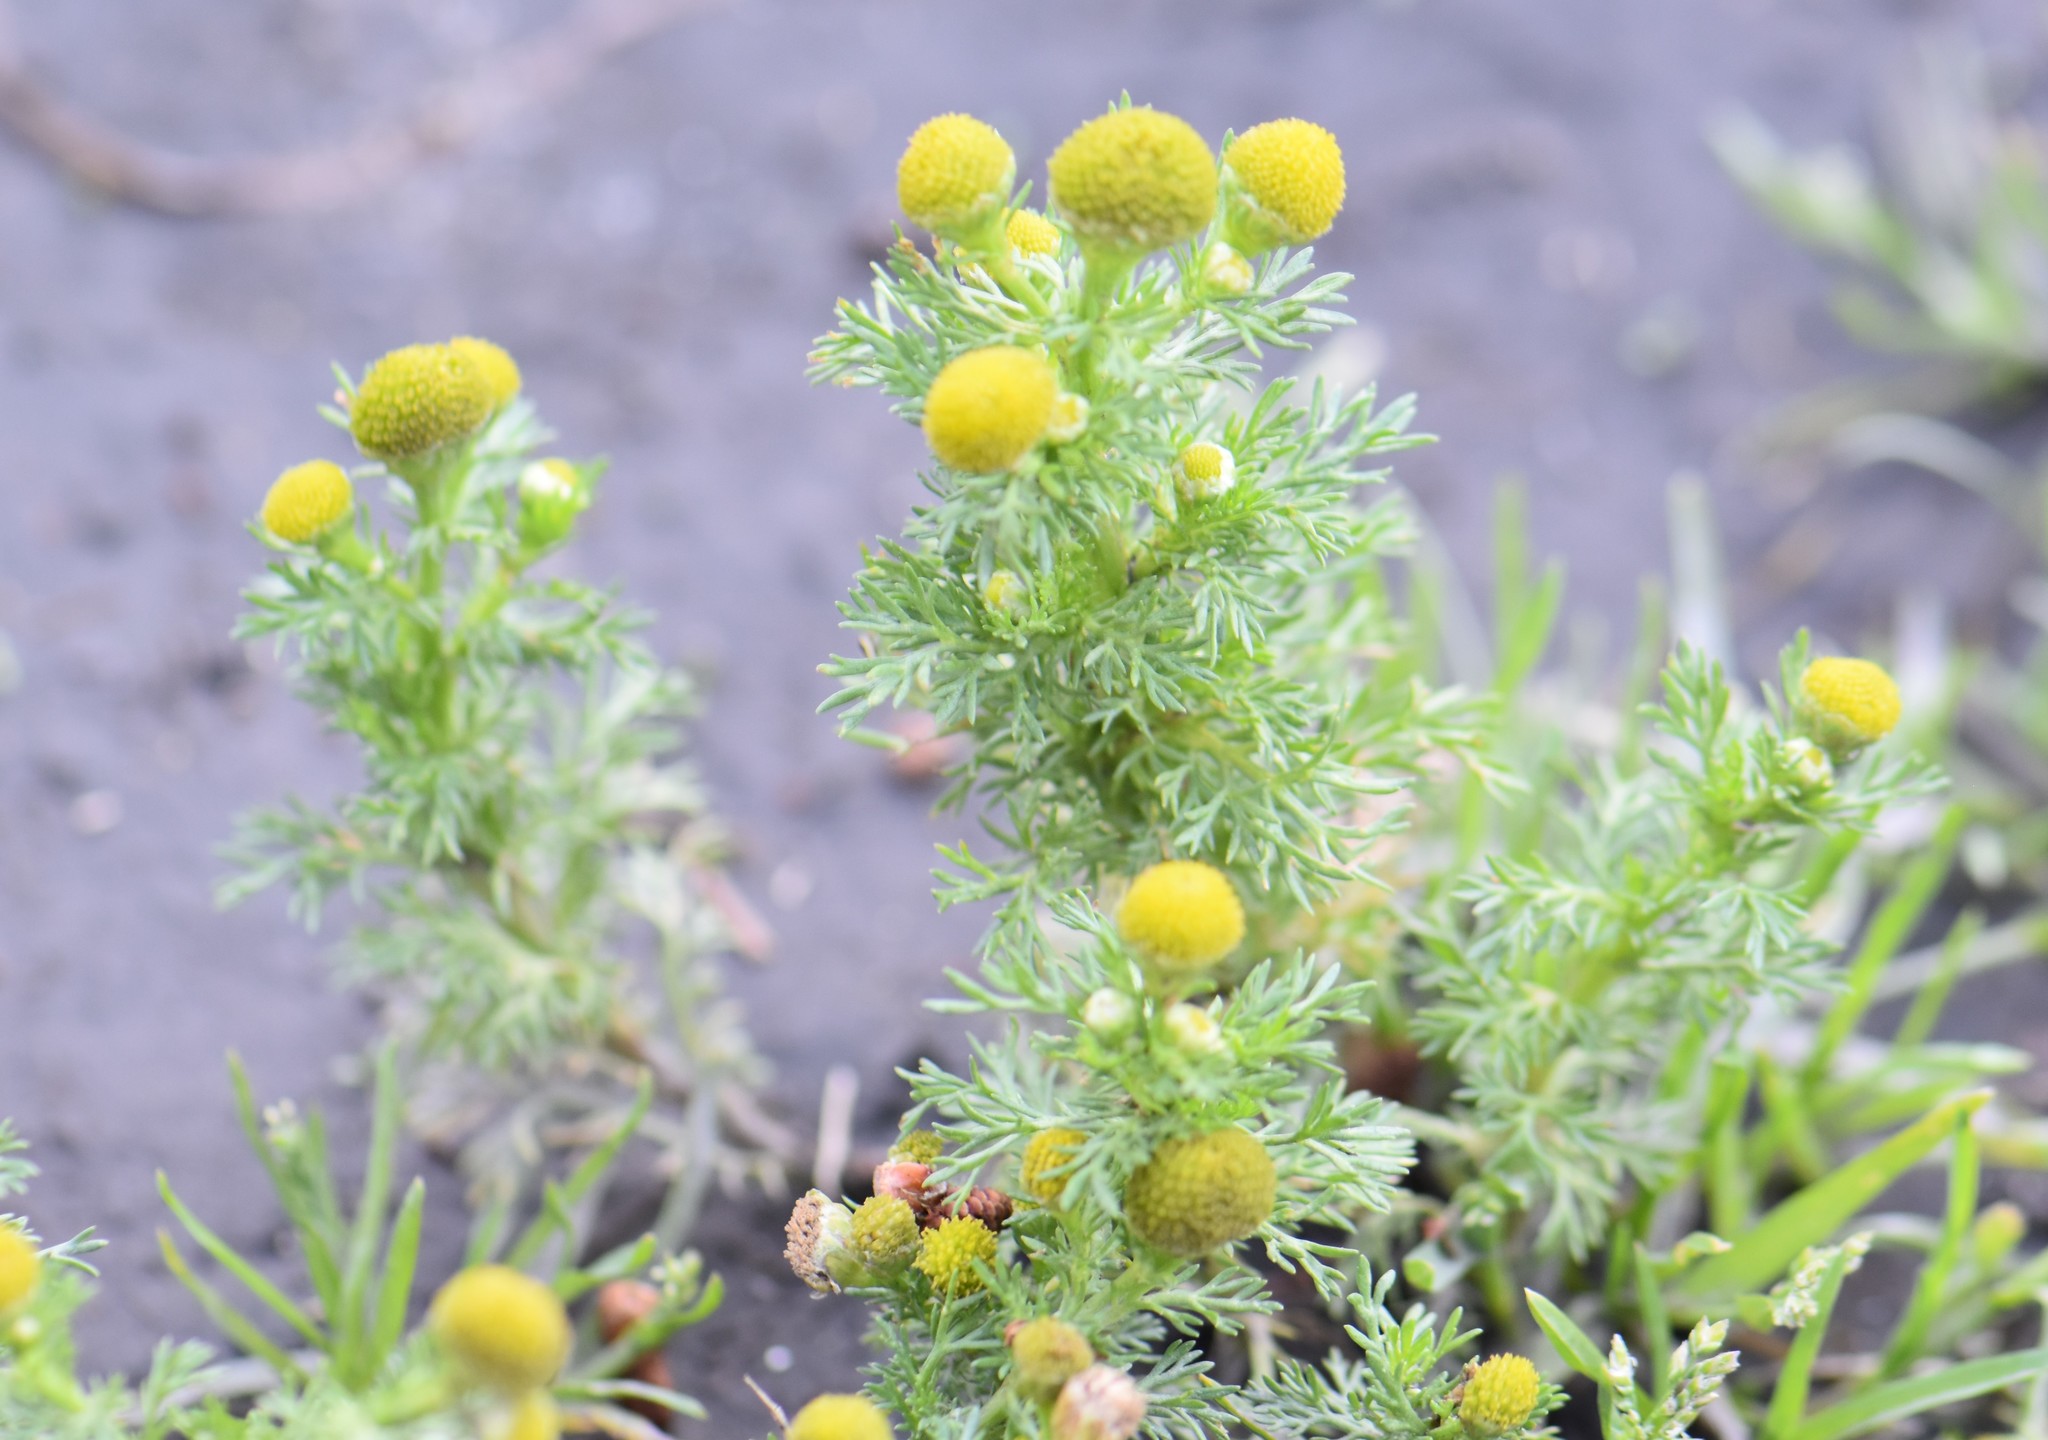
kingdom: Plantae
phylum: Tracheophyta
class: Magnoliopsida
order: Asterales
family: Asteraceae
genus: Matricaria
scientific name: Matricaria discoidea
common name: Disc mayweed
